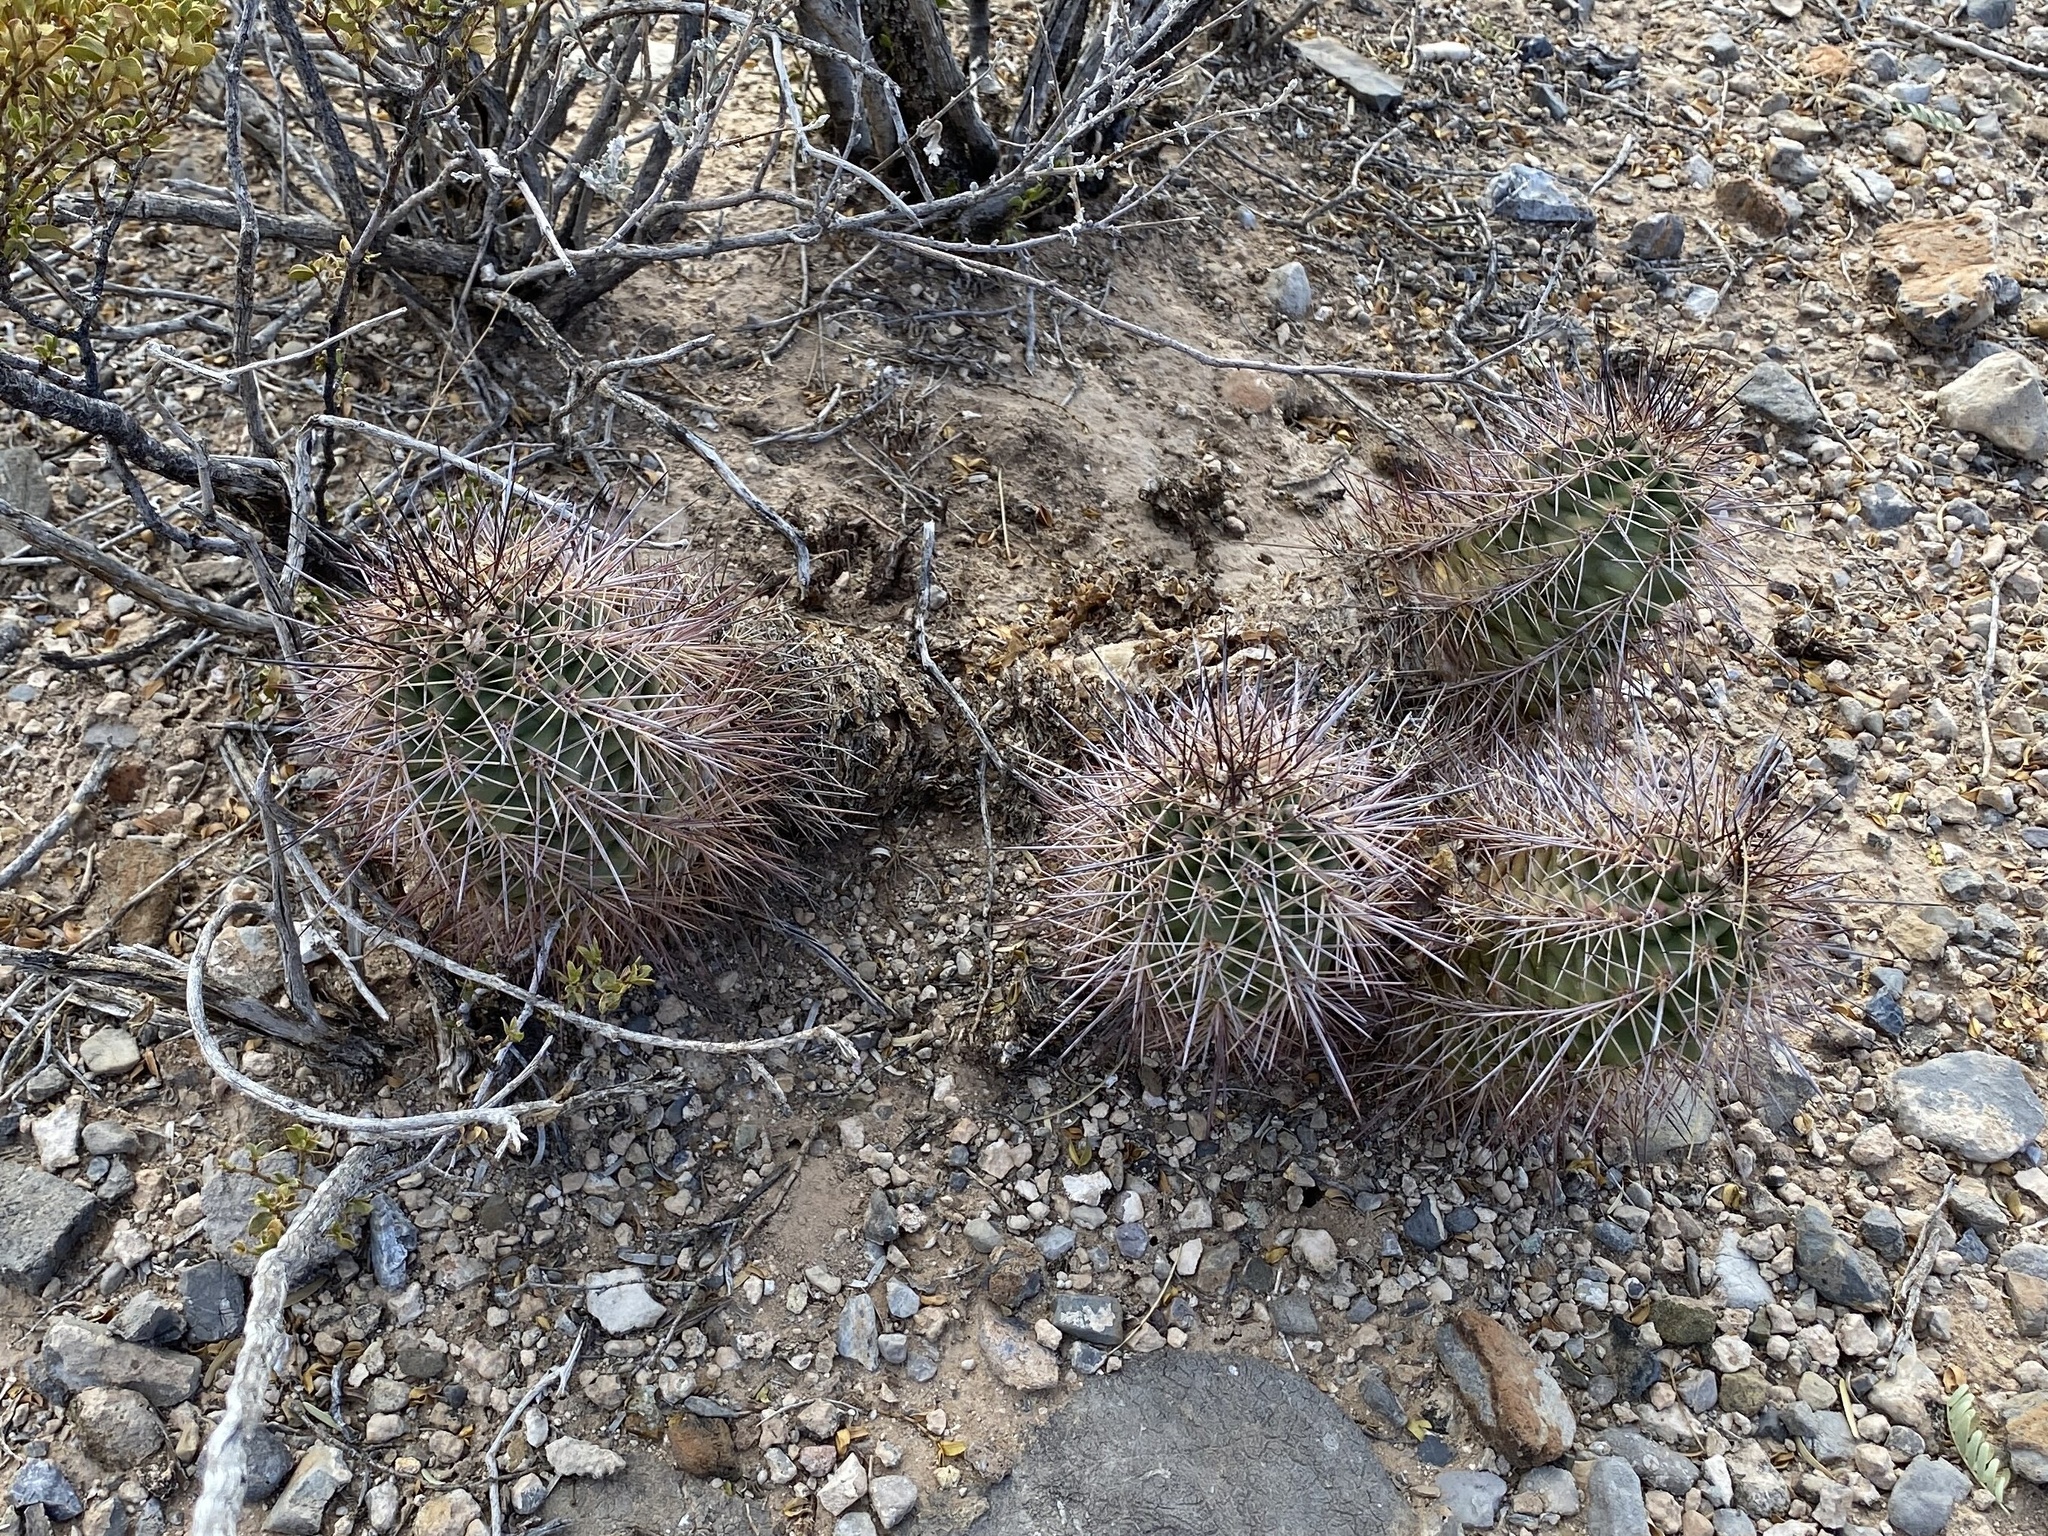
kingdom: Plantae
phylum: Tracheophyta
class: Magnoliopsida
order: Caryophyllales
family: Cactaceae
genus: Echinocereus
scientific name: Echinocereus coccineus
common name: Scarlet hedgehog cactus
